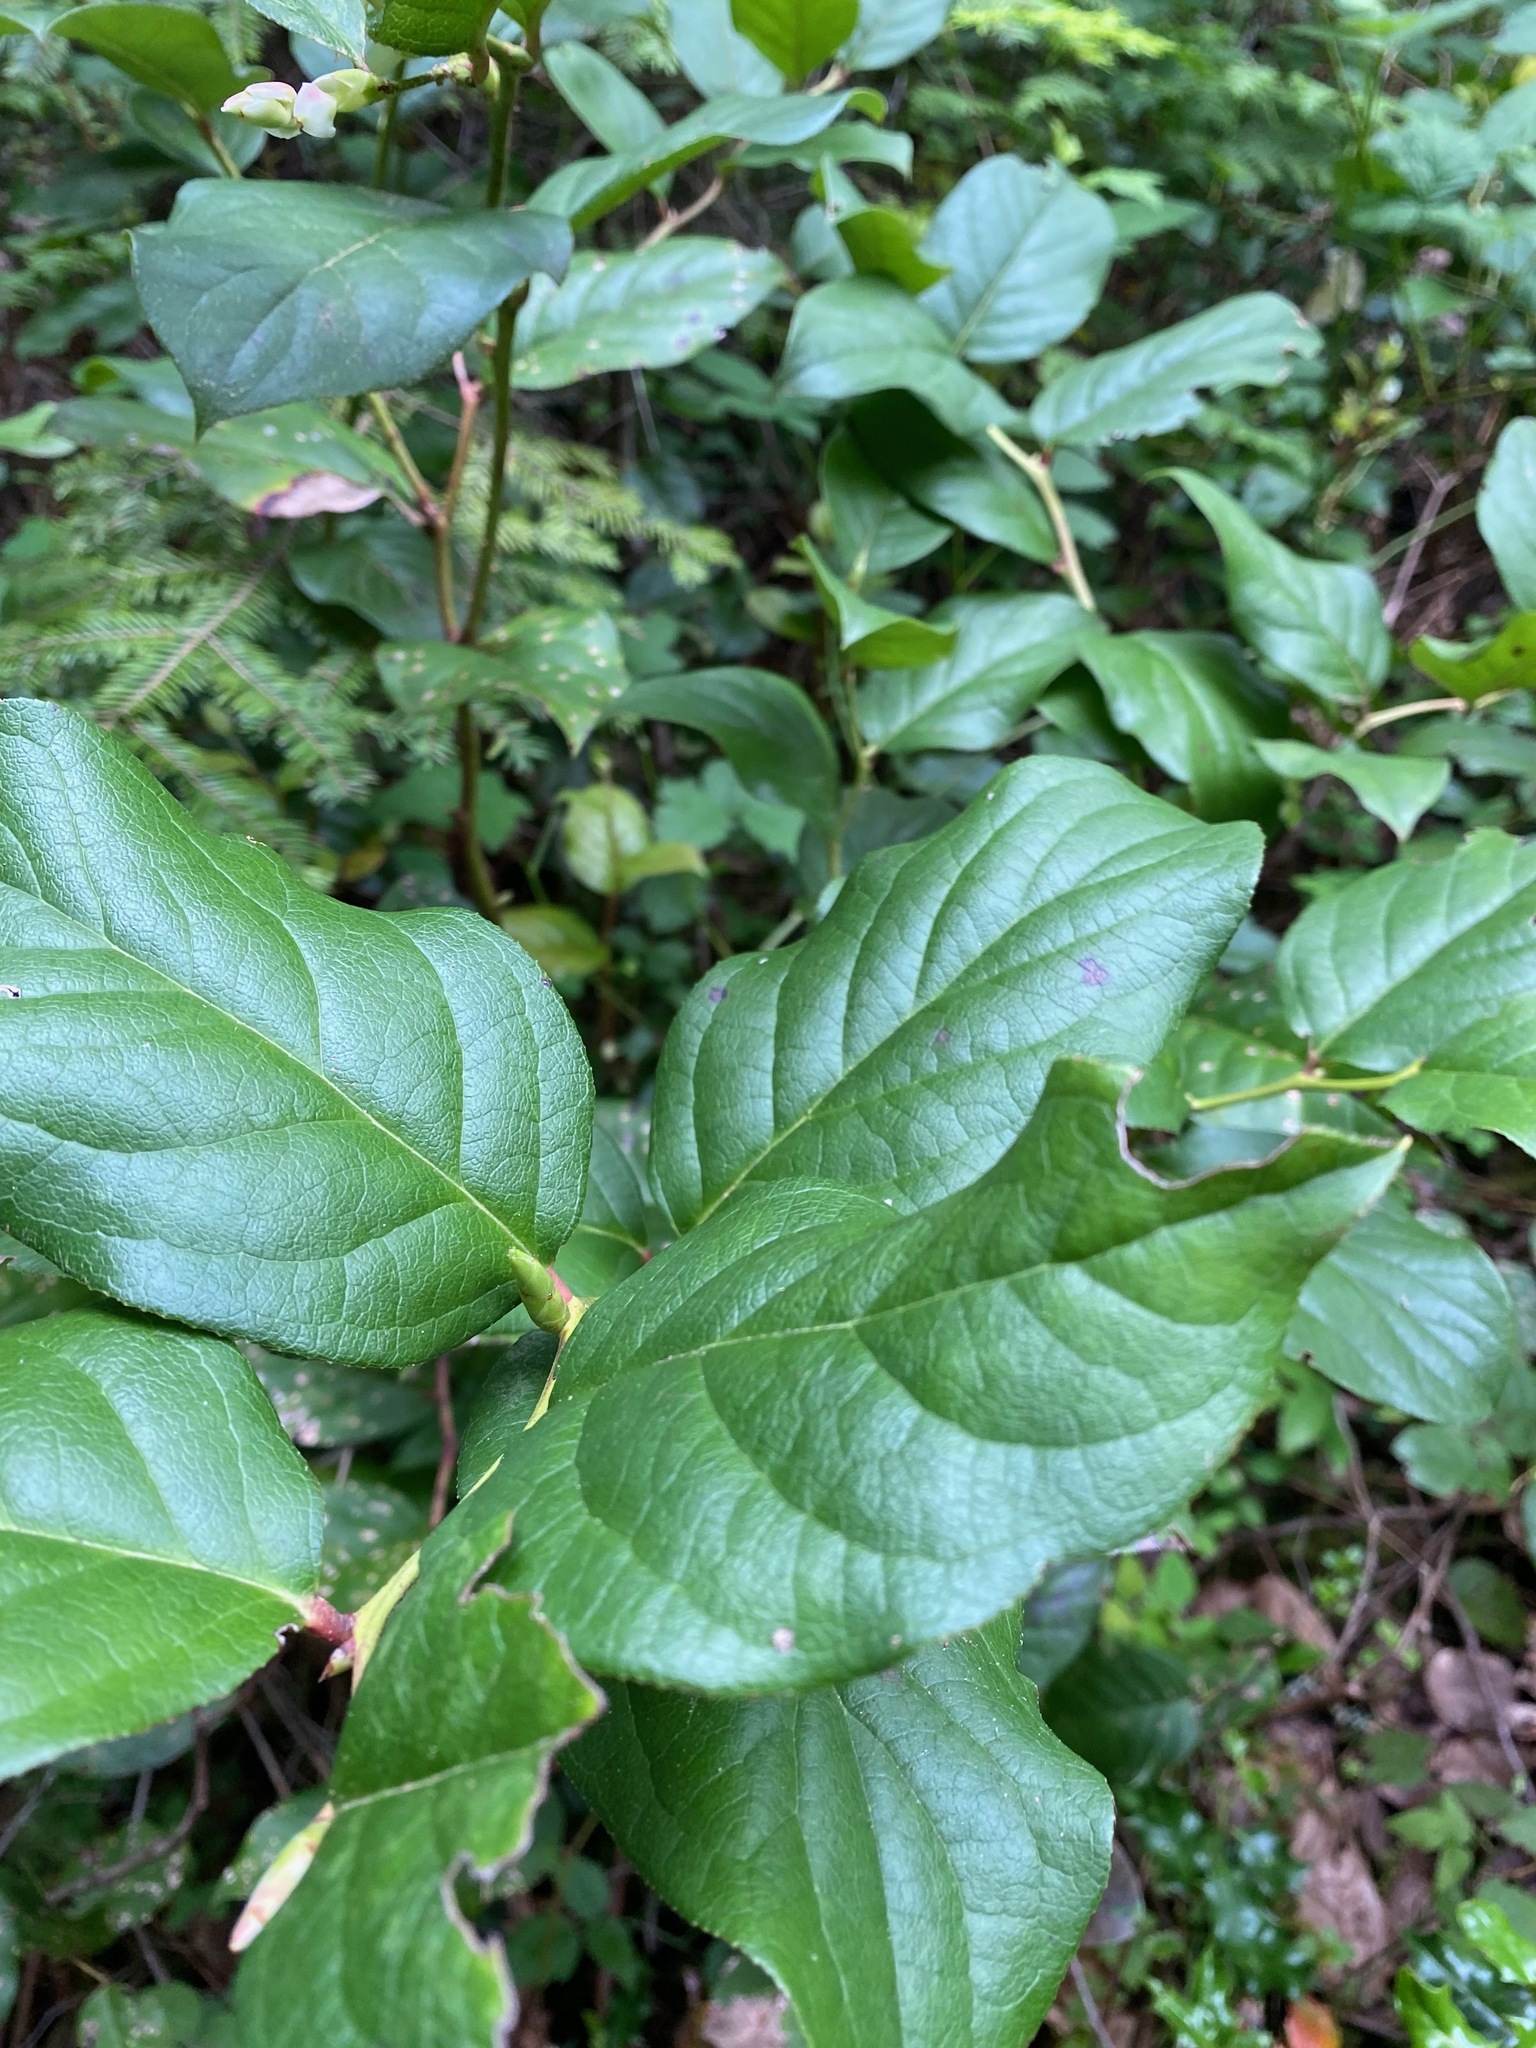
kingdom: Plantae
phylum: Tracheophyta
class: Magnoliopsida
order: Ericales
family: Ericaceae
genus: Gaultheria
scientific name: Gaultheria shallon
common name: Shallon
